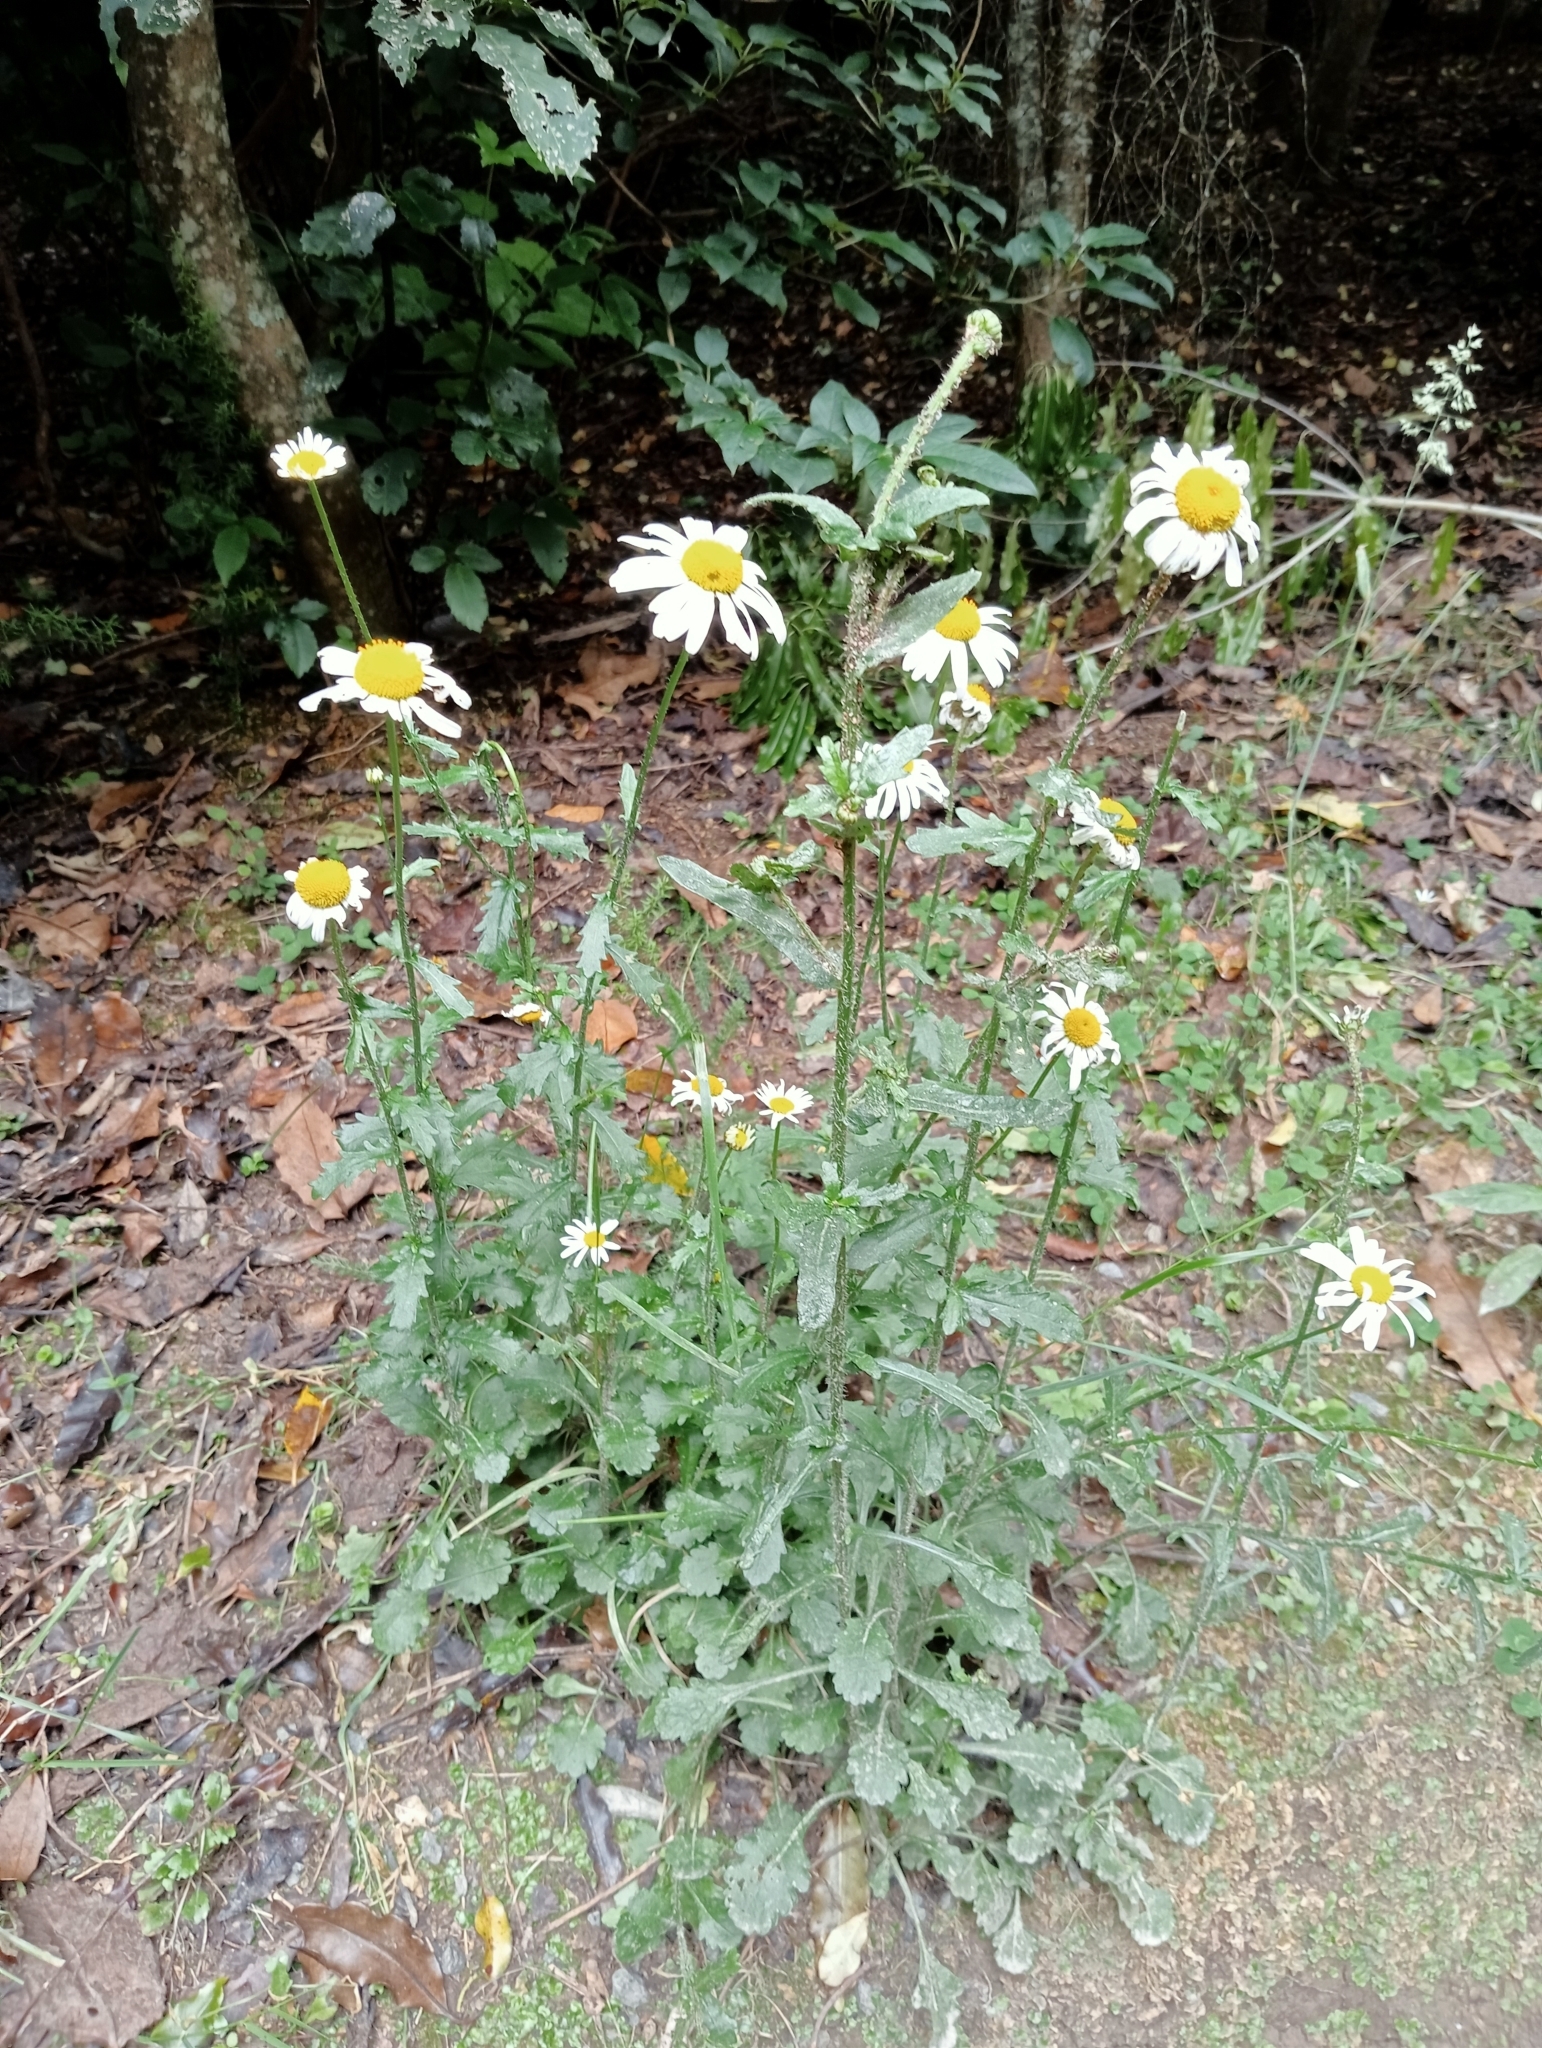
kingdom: Plantae
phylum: Tracheophyta
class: Magnoliopsida
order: Asterales
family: Asteraceae
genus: Leucanthemum
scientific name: Leucanthemum vulgare
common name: Oxeye daisy
